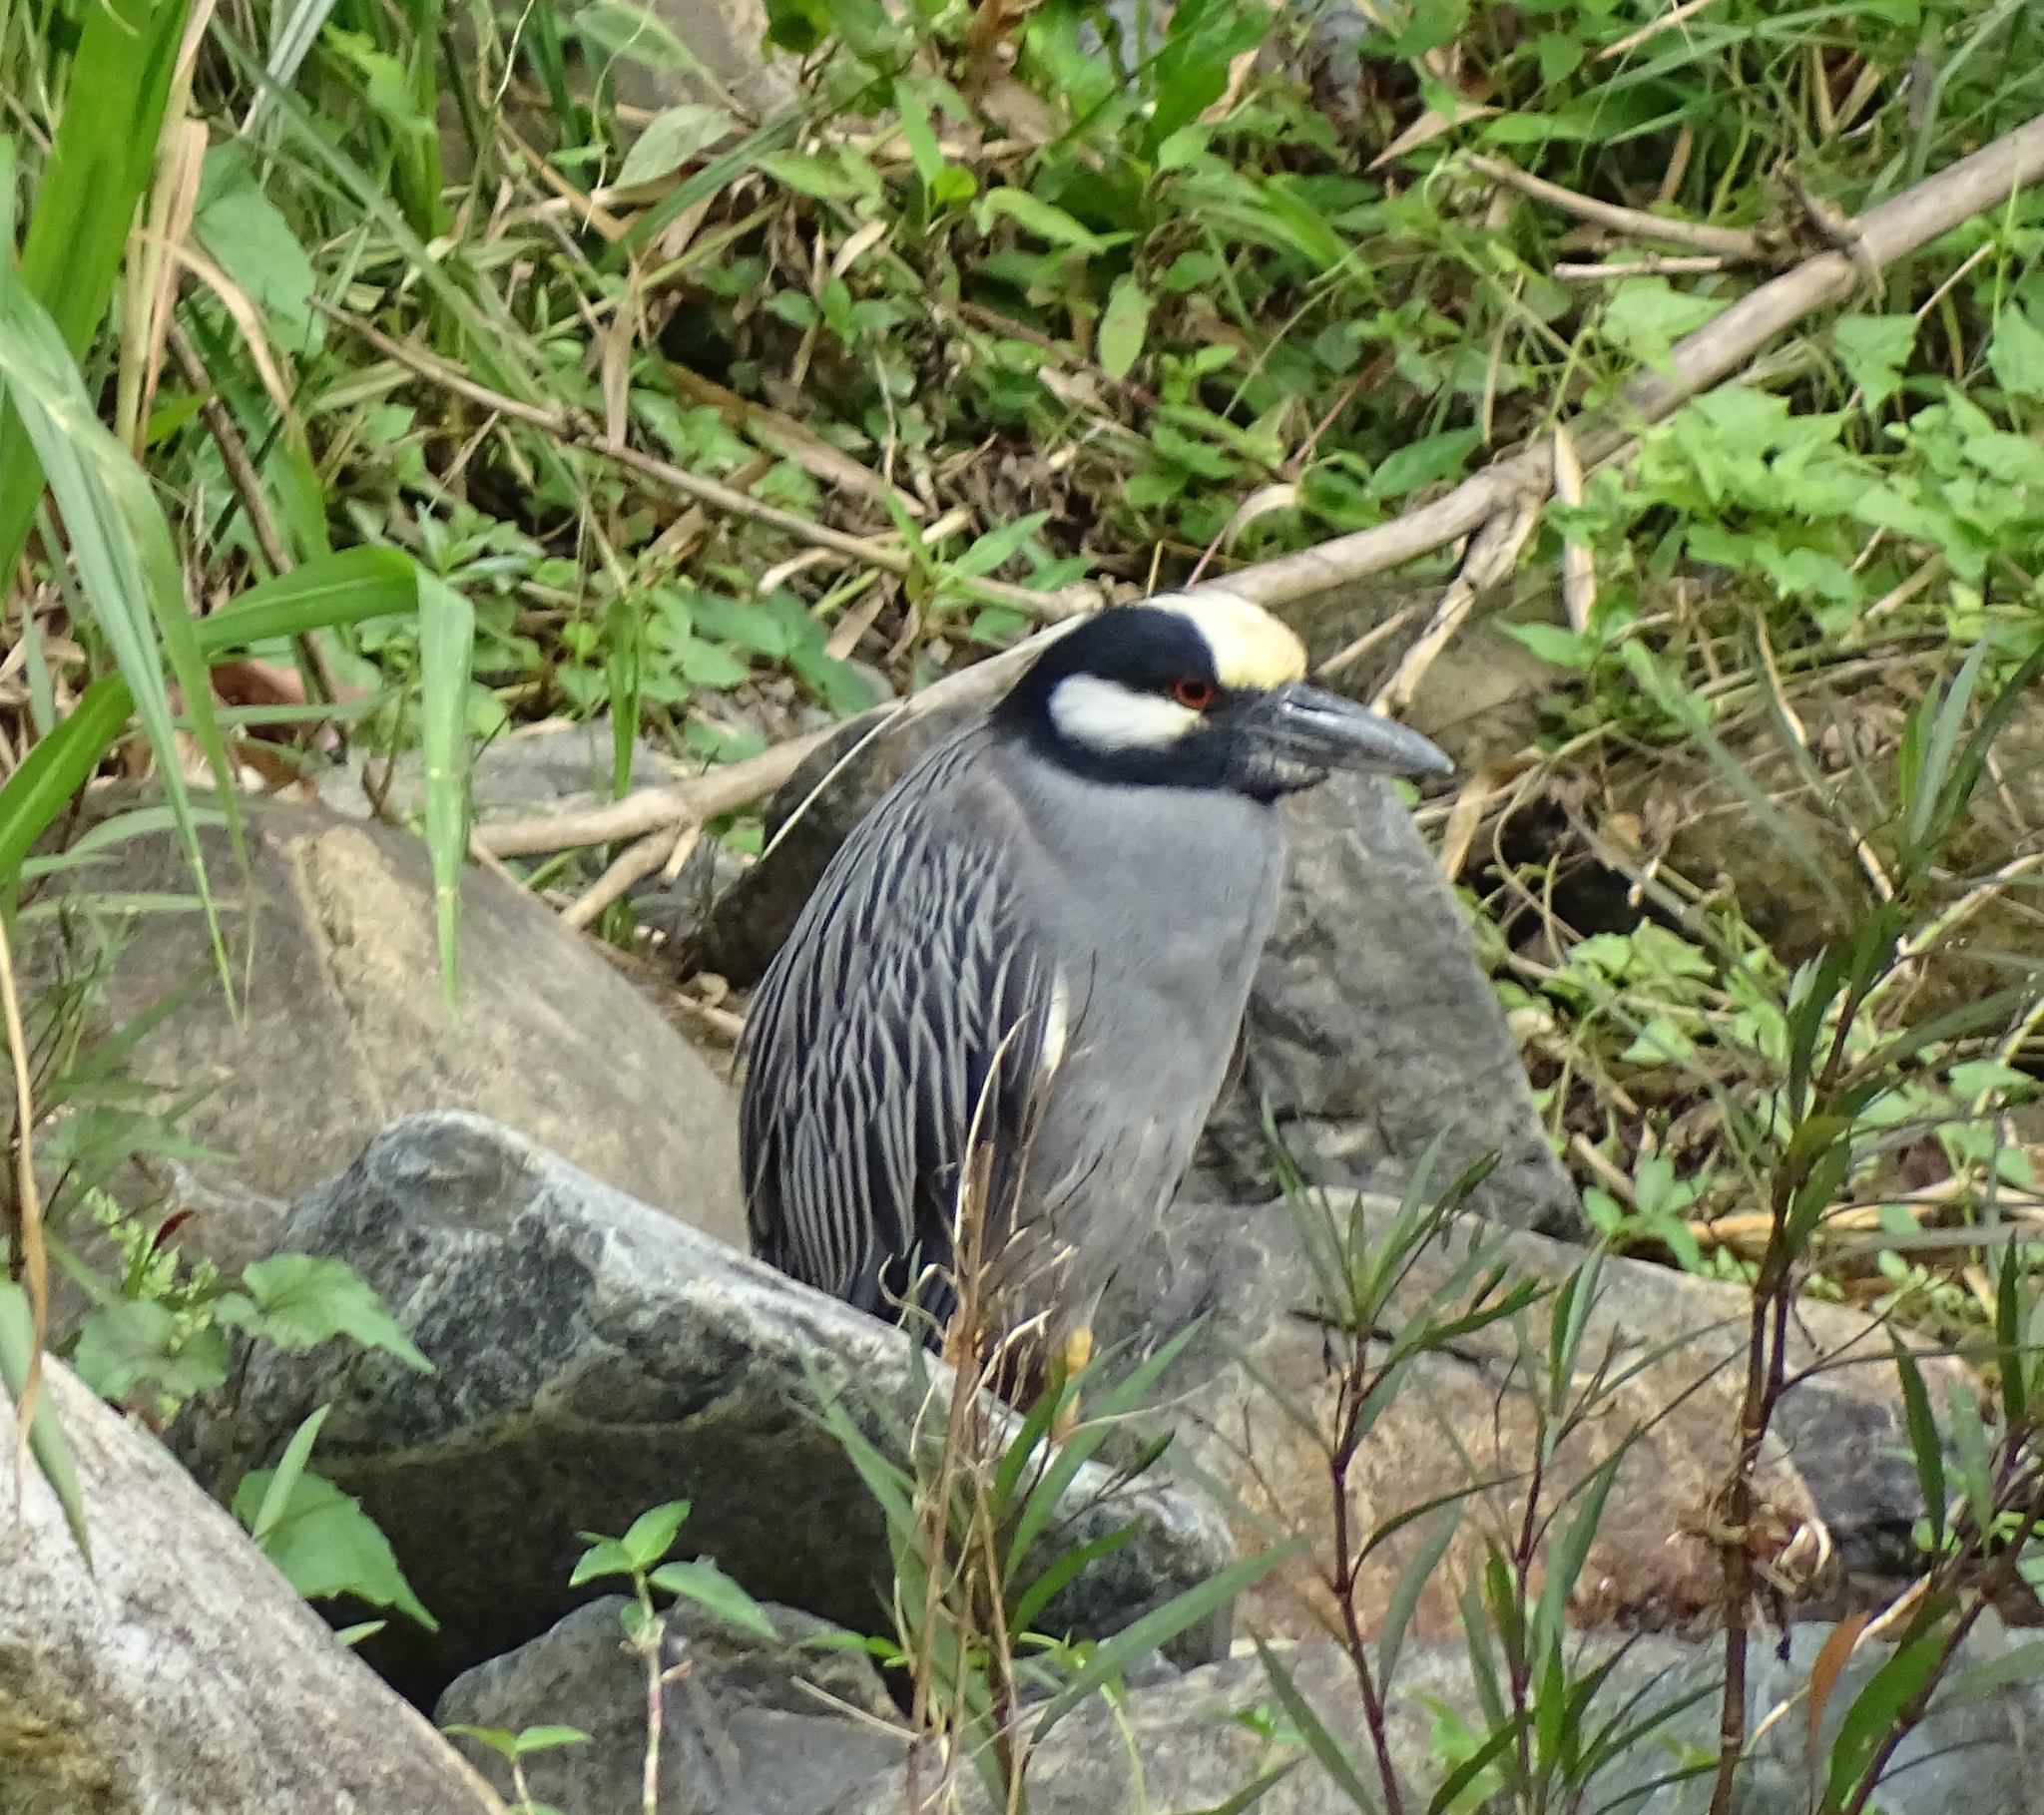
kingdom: Animalia
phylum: Chordata
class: Aves
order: Pelecaniformes
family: Ardeidae
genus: Nyctanassa
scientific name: Nyctanassa violacea
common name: Yellow-crowned night heron
